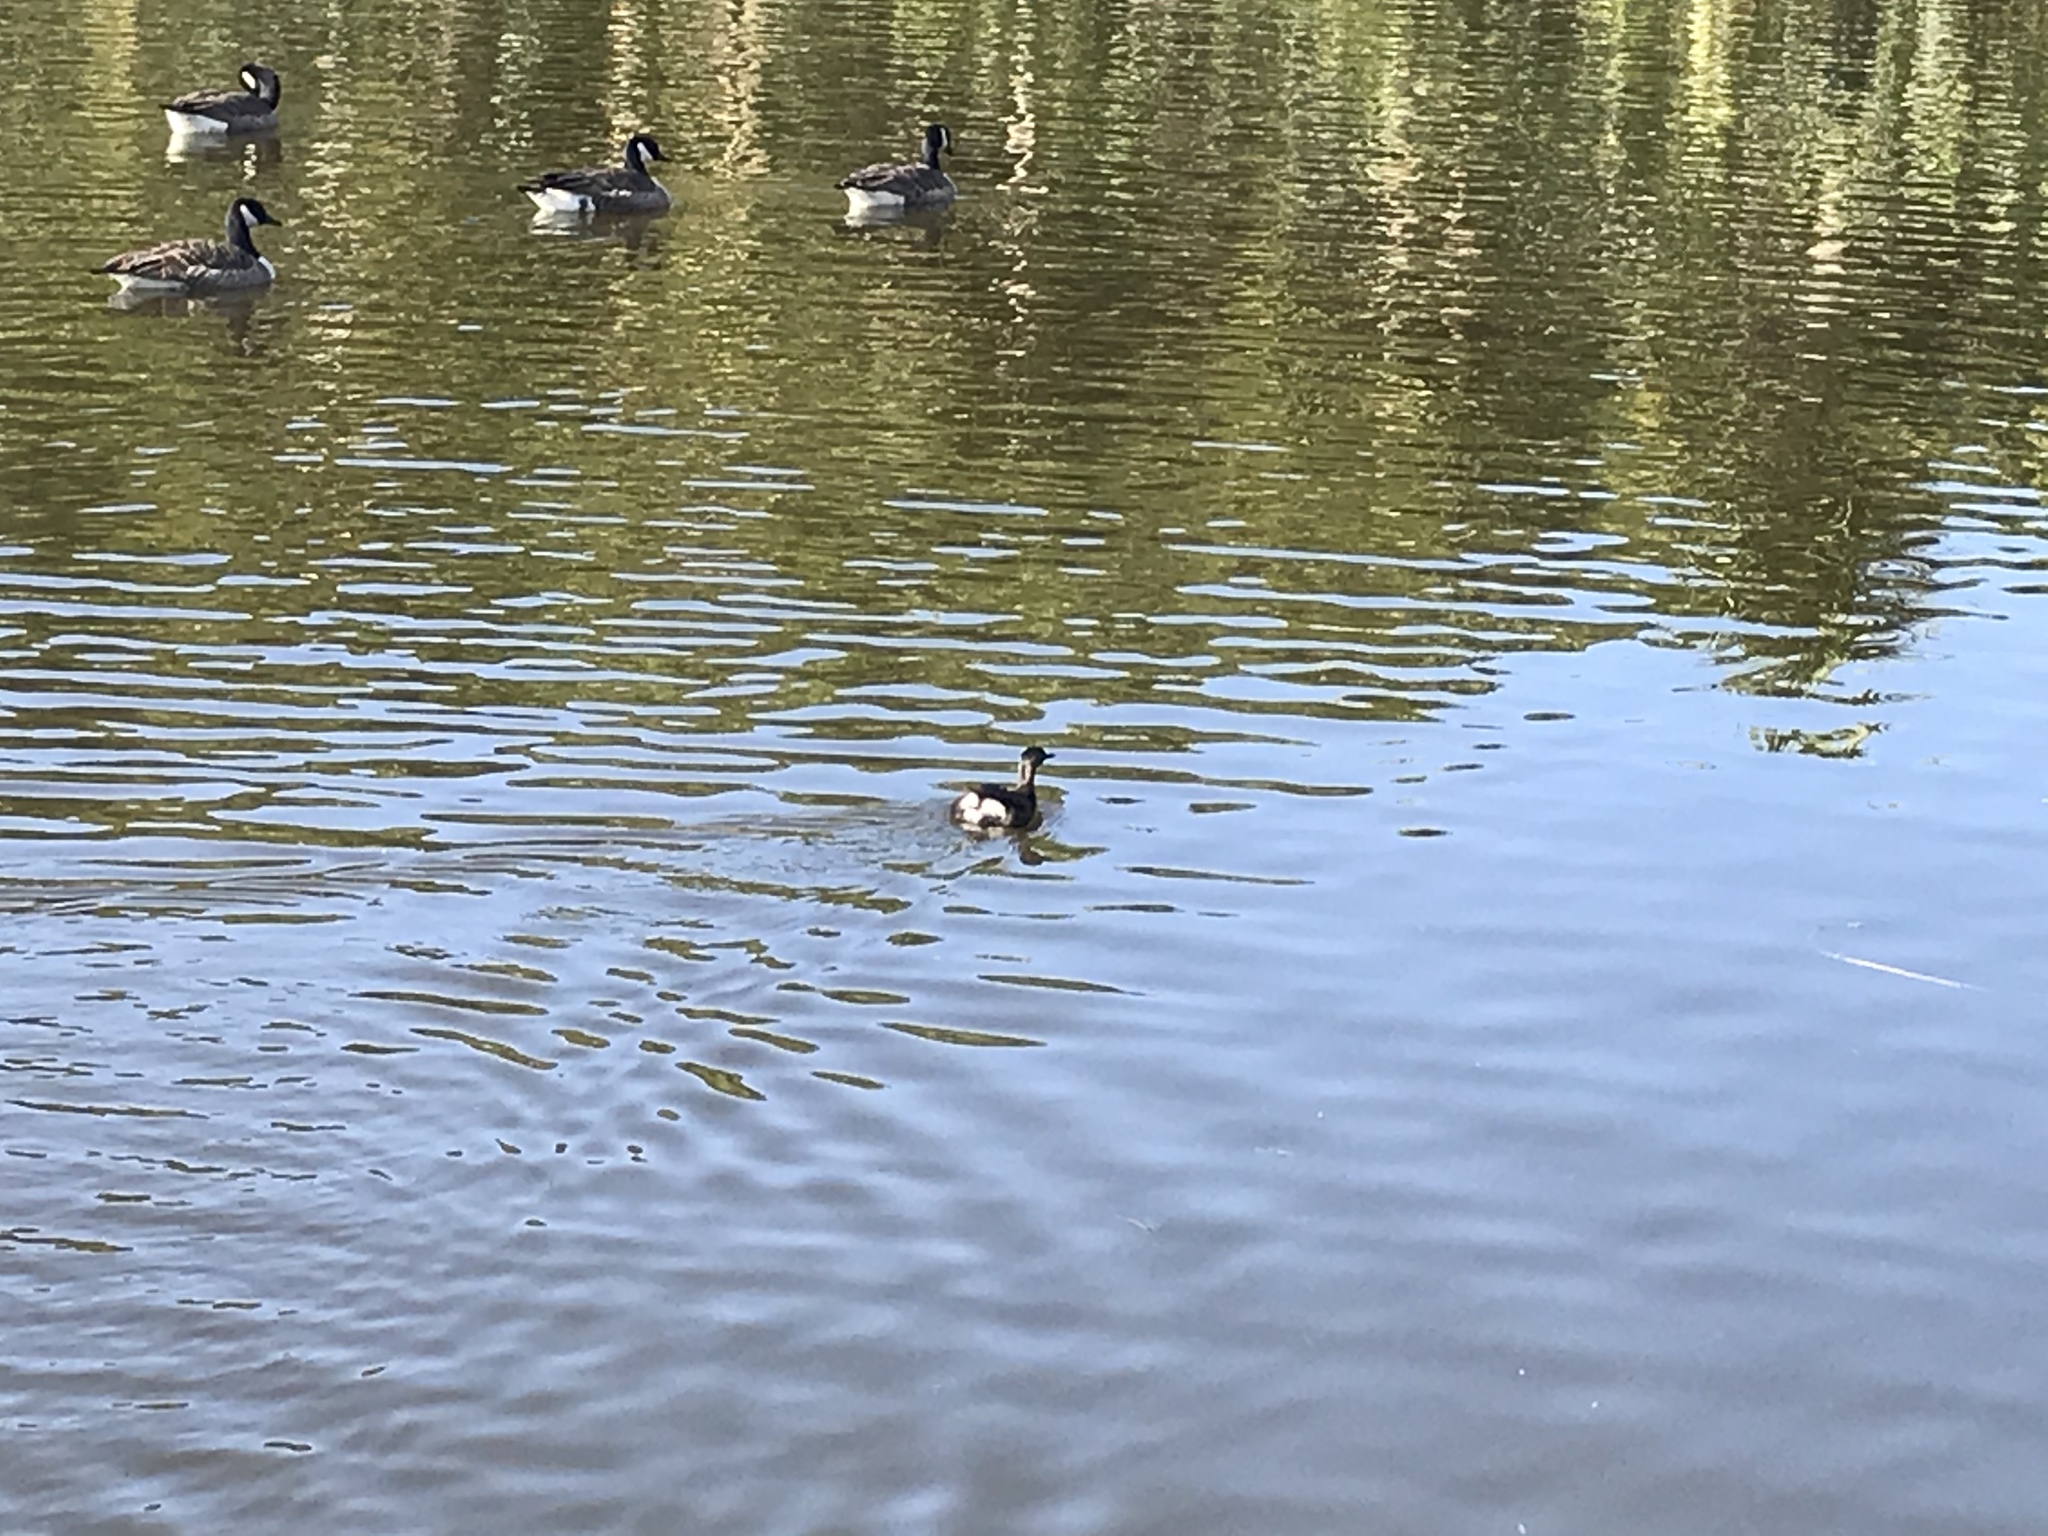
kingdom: Animalia
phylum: Chordata
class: Aves
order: Podicipediformes
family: Podicipedidae
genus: Poliocephalus
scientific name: Poliocephalus rufopectus
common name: New zealand grebe
